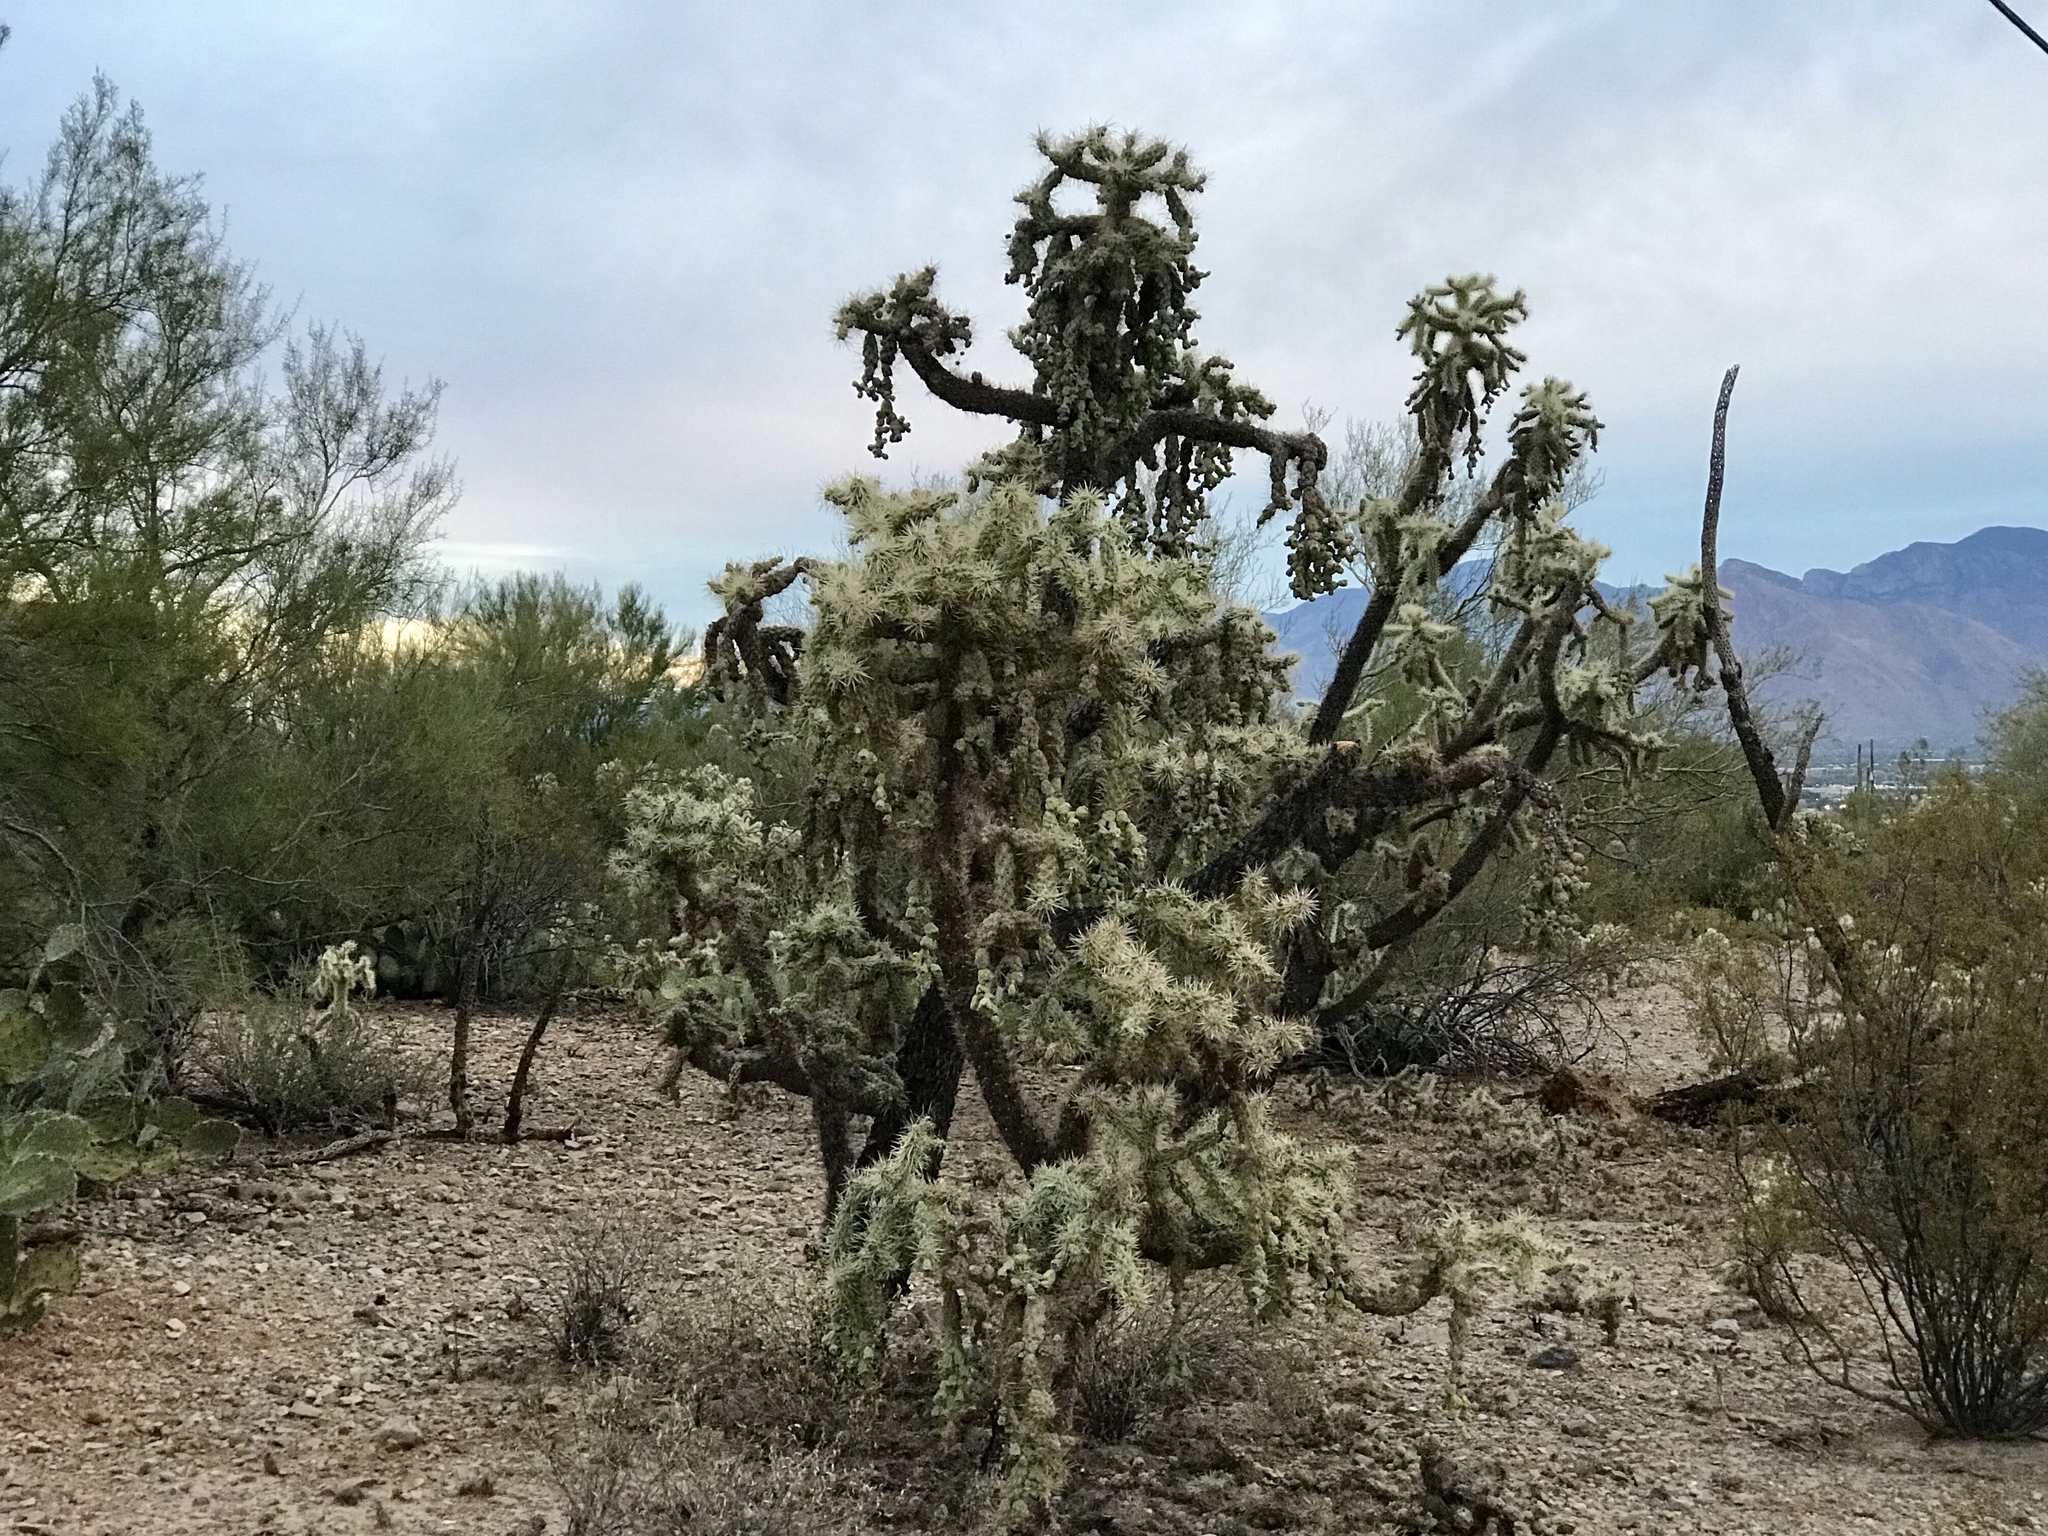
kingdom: Plantae
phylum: Tracheophyta
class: Magnoliopsida
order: Caryophyllales
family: Cactaceae
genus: Cylindropuntia
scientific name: Cylindropuntia fulgida
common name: Jumping cholla
